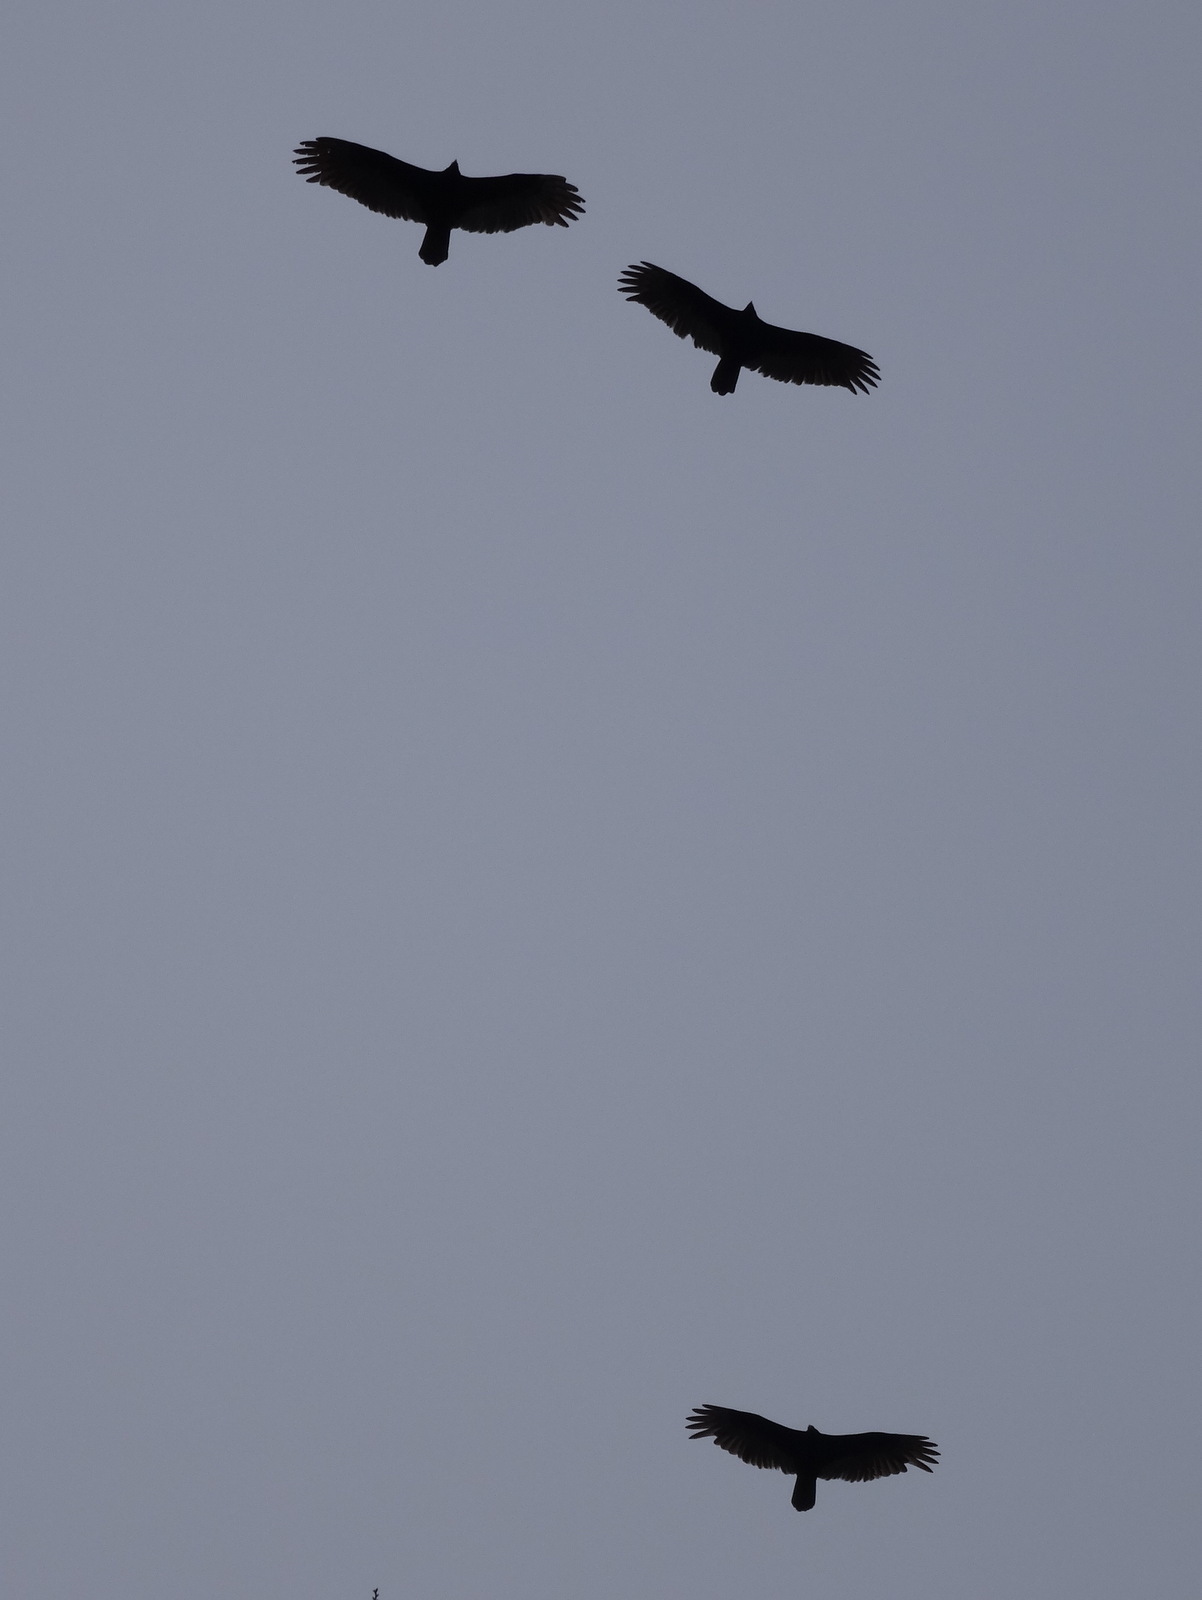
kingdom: Animalia
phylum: Chordata
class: Aves
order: Accipitriformes
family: Cathartidae
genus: Cathartes
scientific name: Cathartes aura
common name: Turkey vulture
